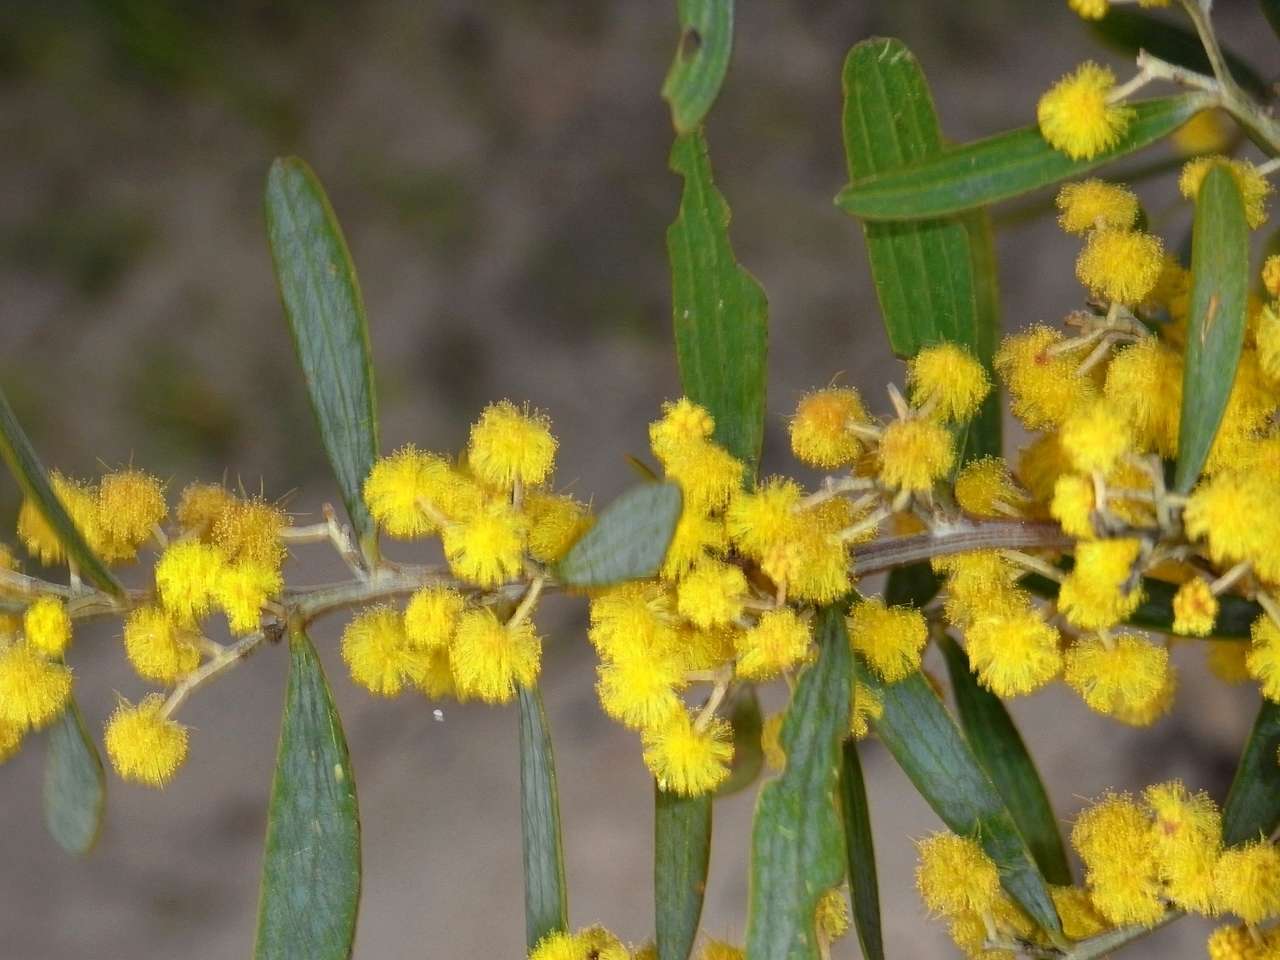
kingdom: Plantae
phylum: Tracheophyta
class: Magnoliopsida
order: Fabales
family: Fabaceae
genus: Acacia
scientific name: Acacia trineura
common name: Green wattle
